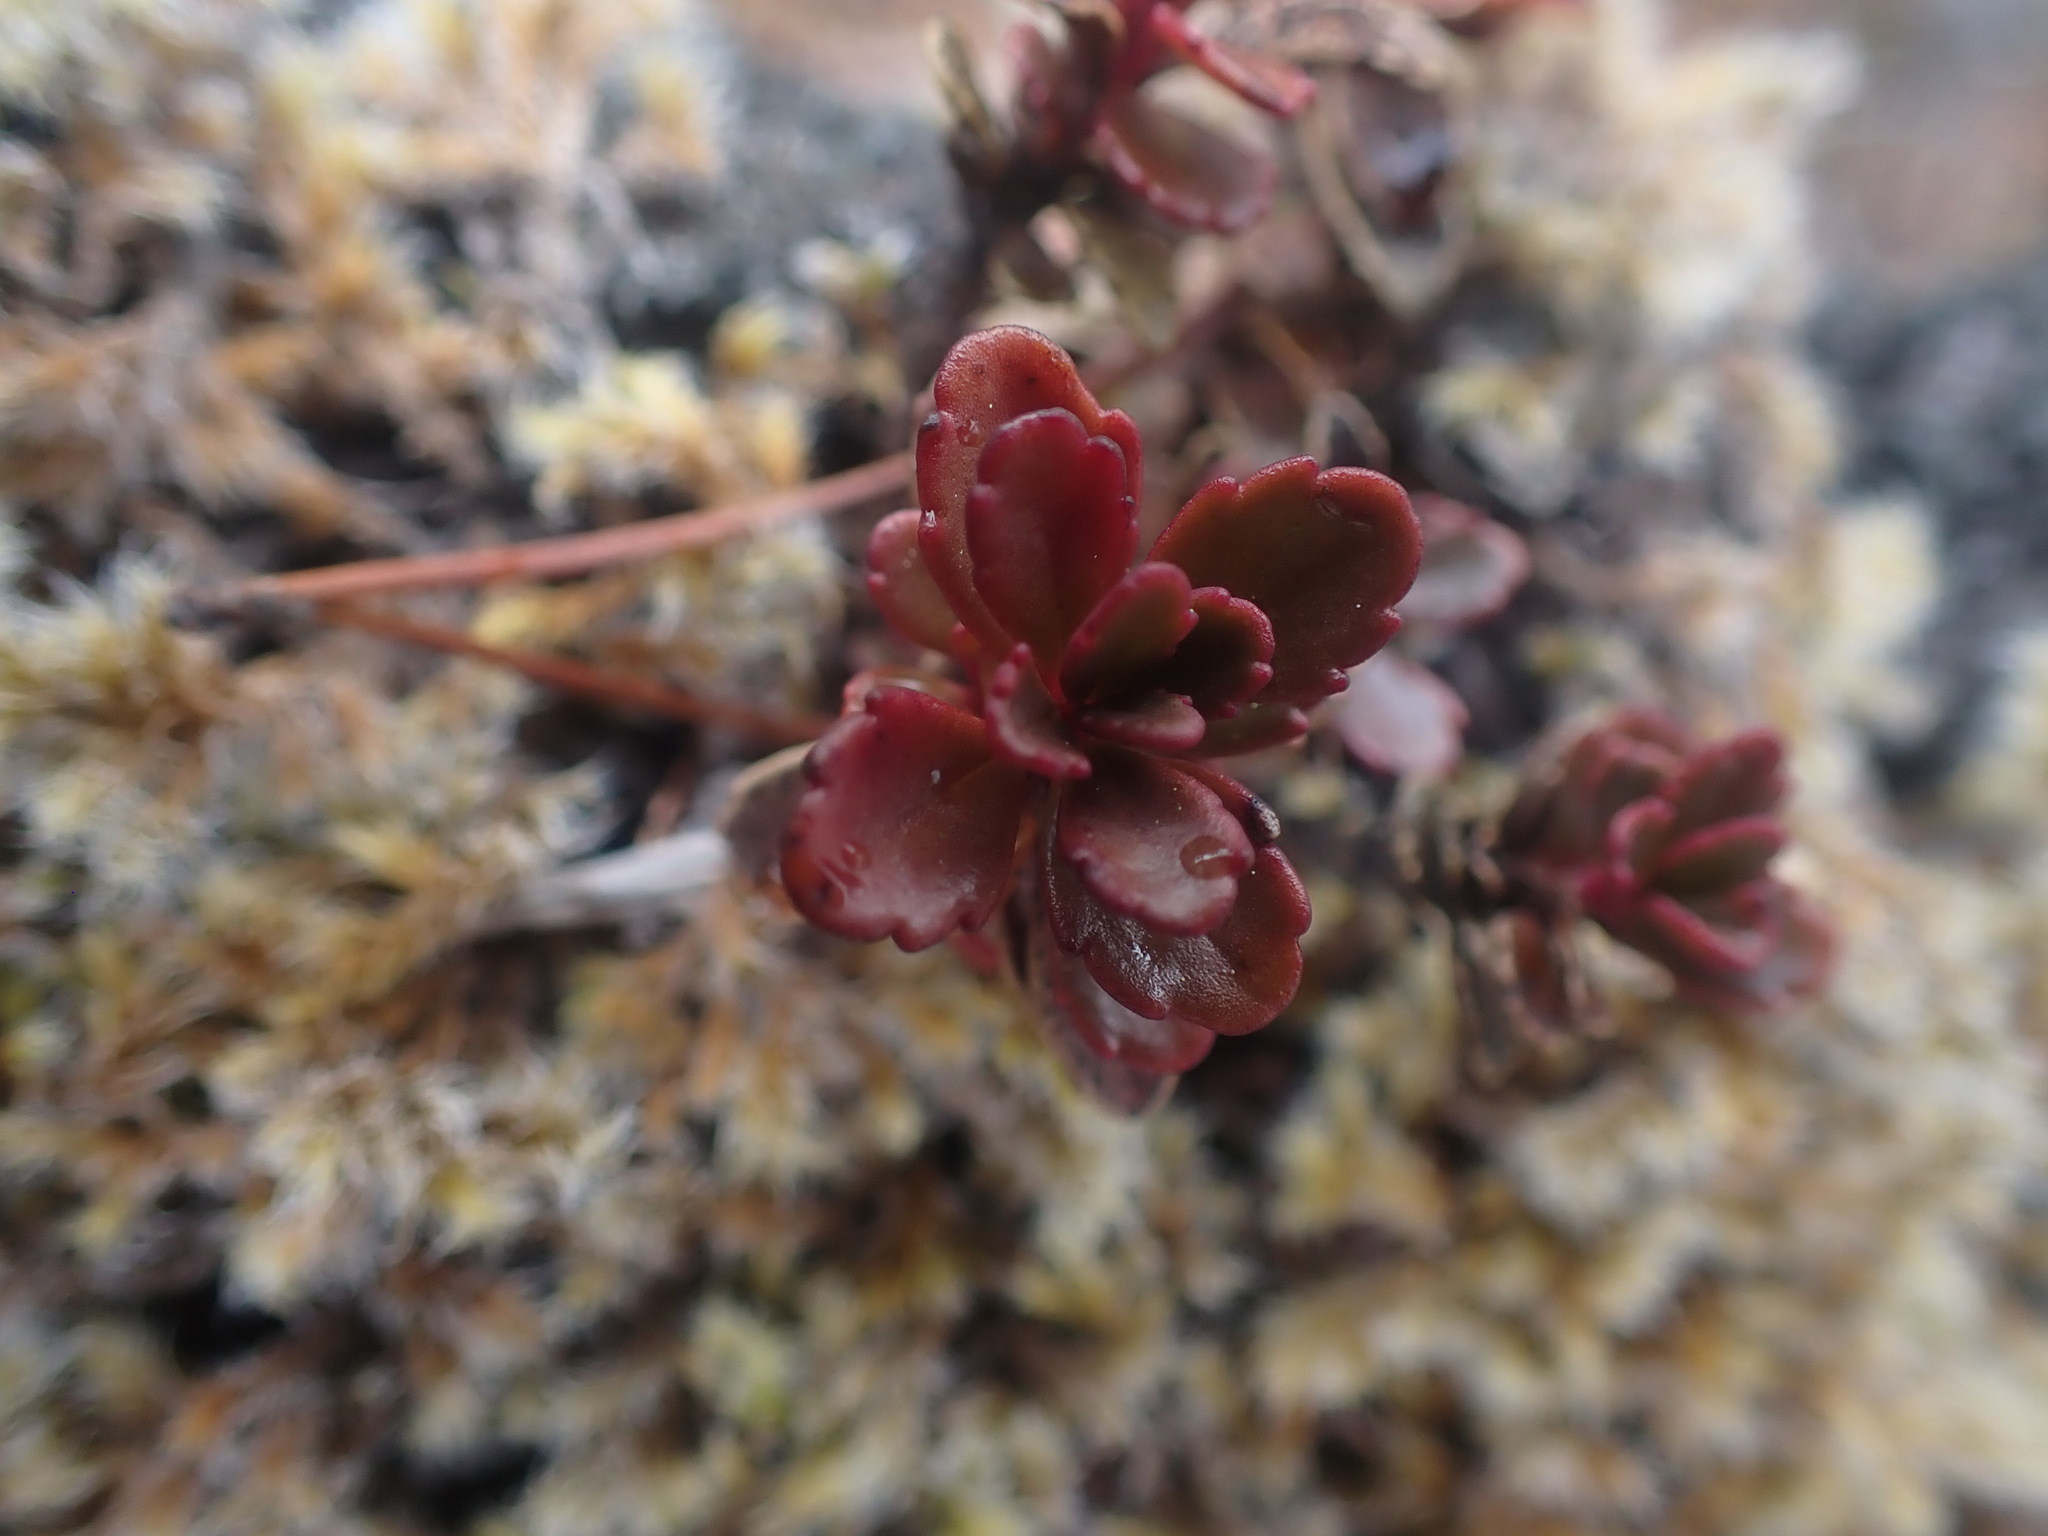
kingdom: Plantae
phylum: Tracheophyta
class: Magnoliopsida
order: Lamiales
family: Plantaginaceae
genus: Penstemon
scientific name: Penstemon davidsonii
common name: Davidson's penstemon
